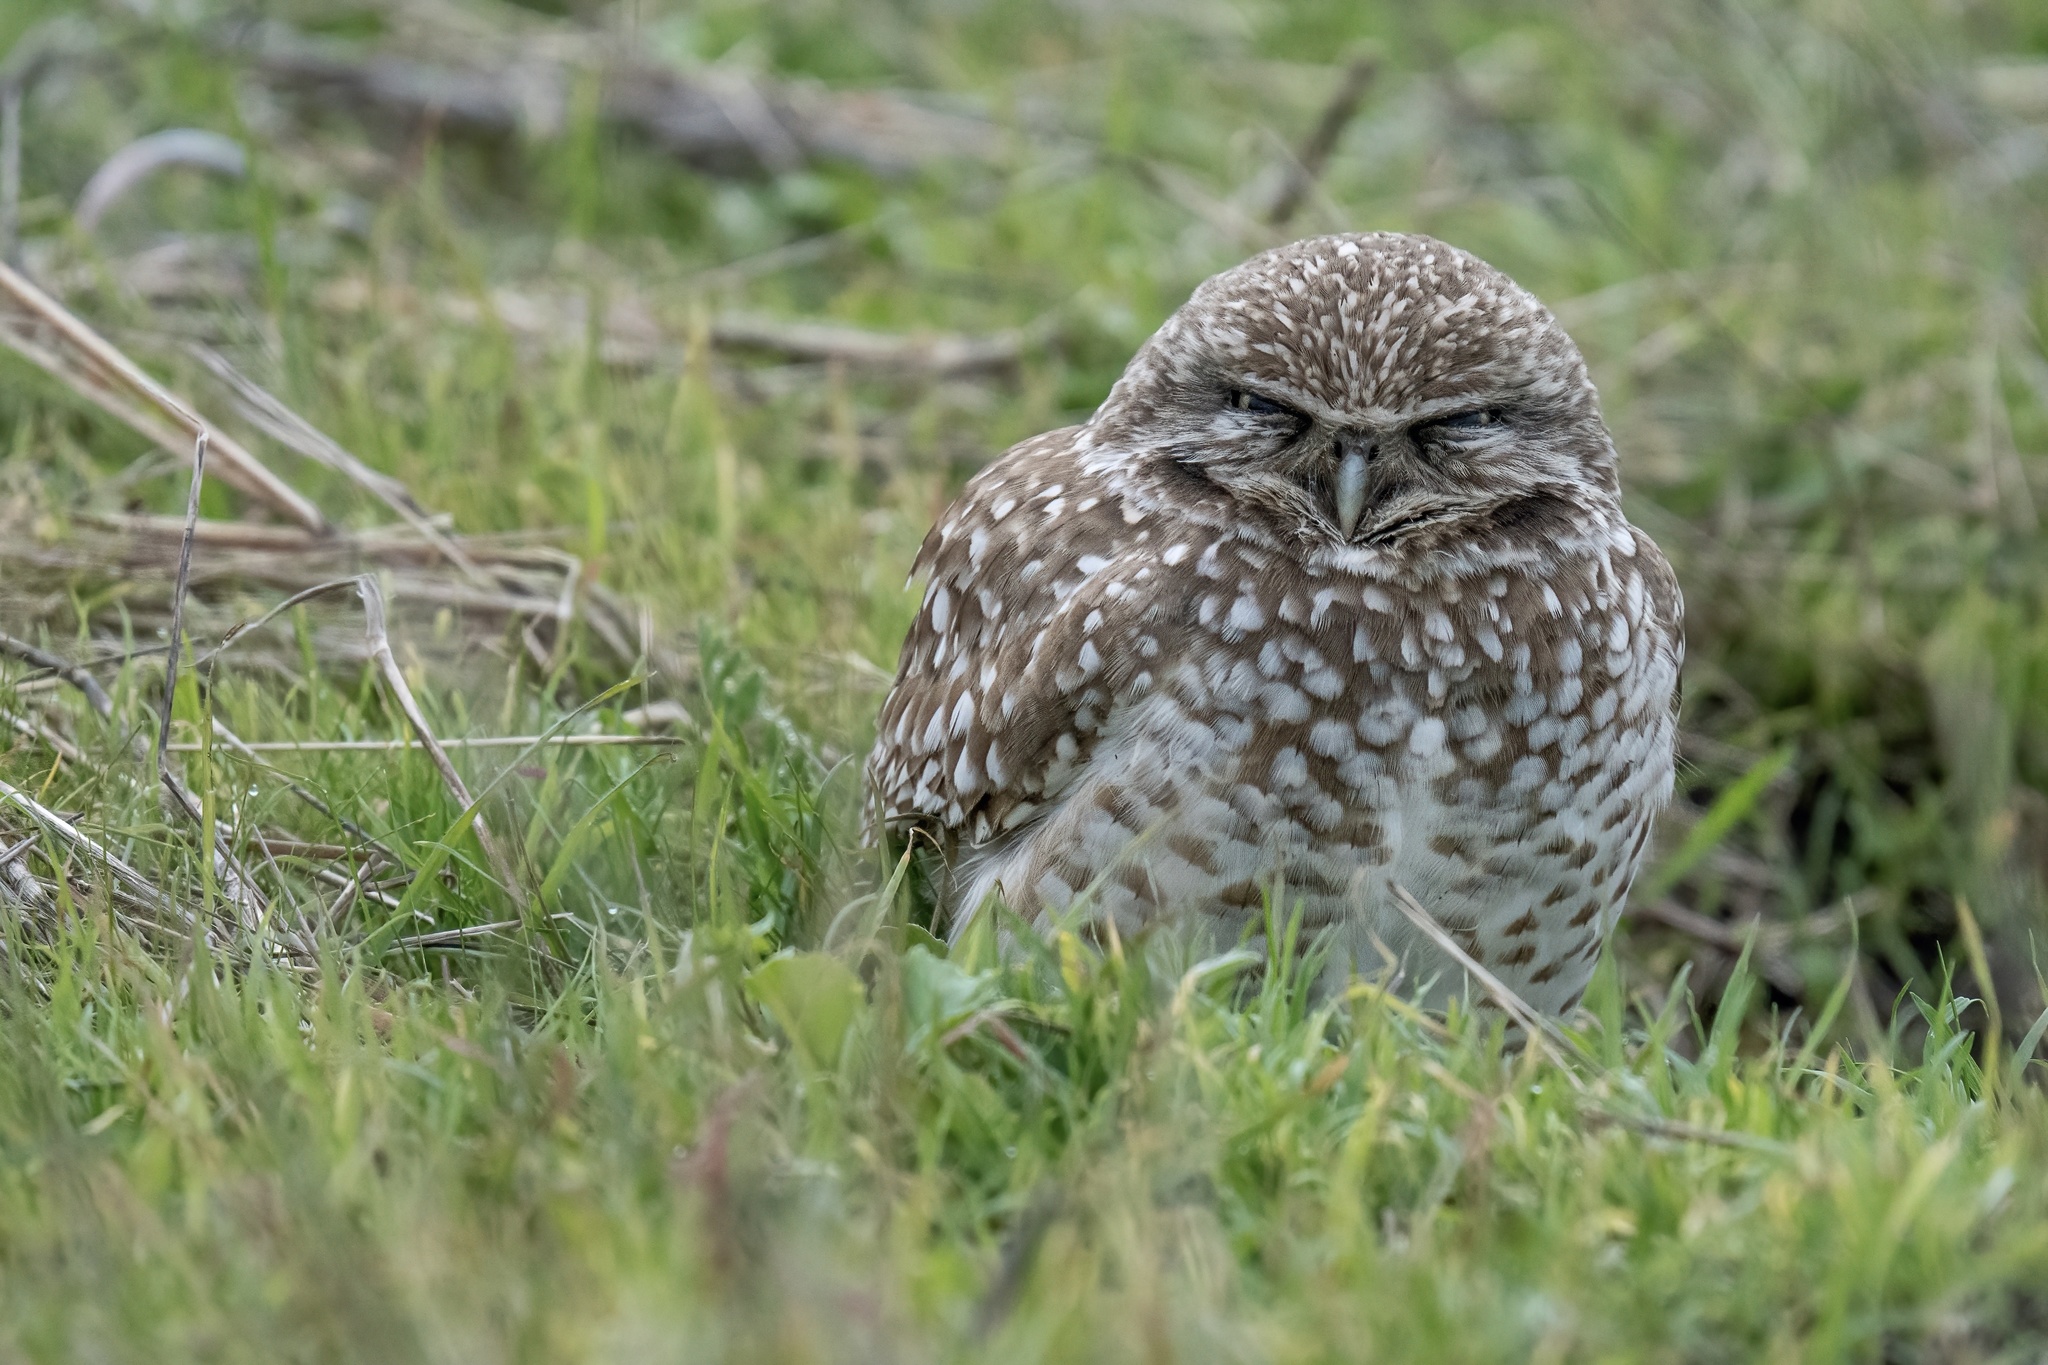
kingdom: Animalia
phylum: Chordata
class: Aves
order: Strigiformes
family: Strigidae
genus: Athene
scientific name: Athene cunicularia
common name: Burrowing owl
